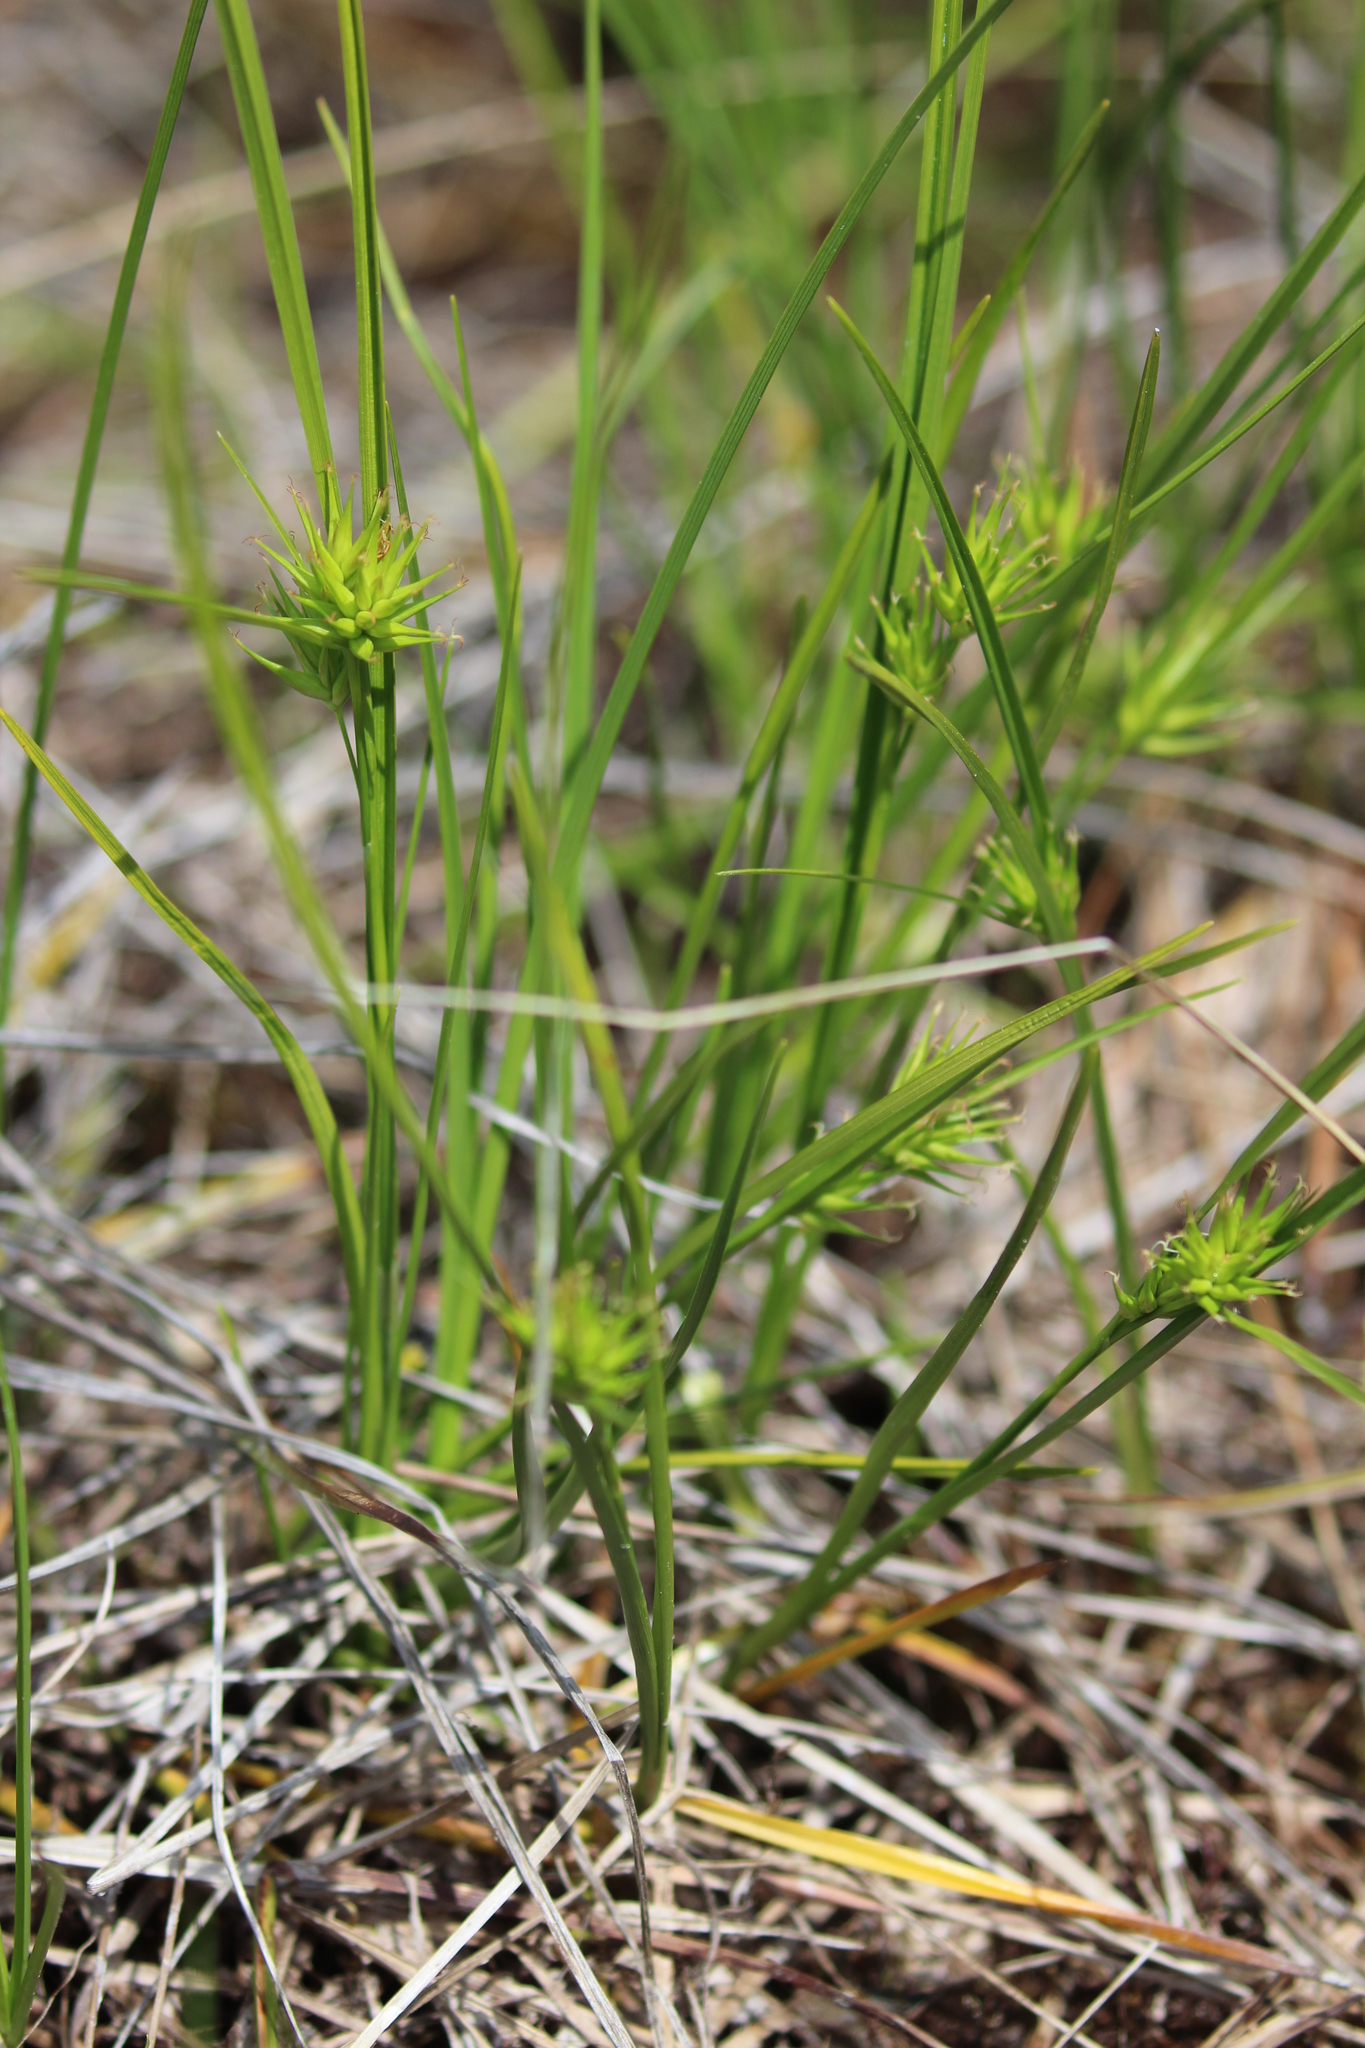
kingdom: Plantae
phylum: Tracheophyta
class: Liliopsida
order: Poales
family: Cyperaceae
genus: Carex
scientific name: Carex michauxiana
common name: Michaux's sedge
